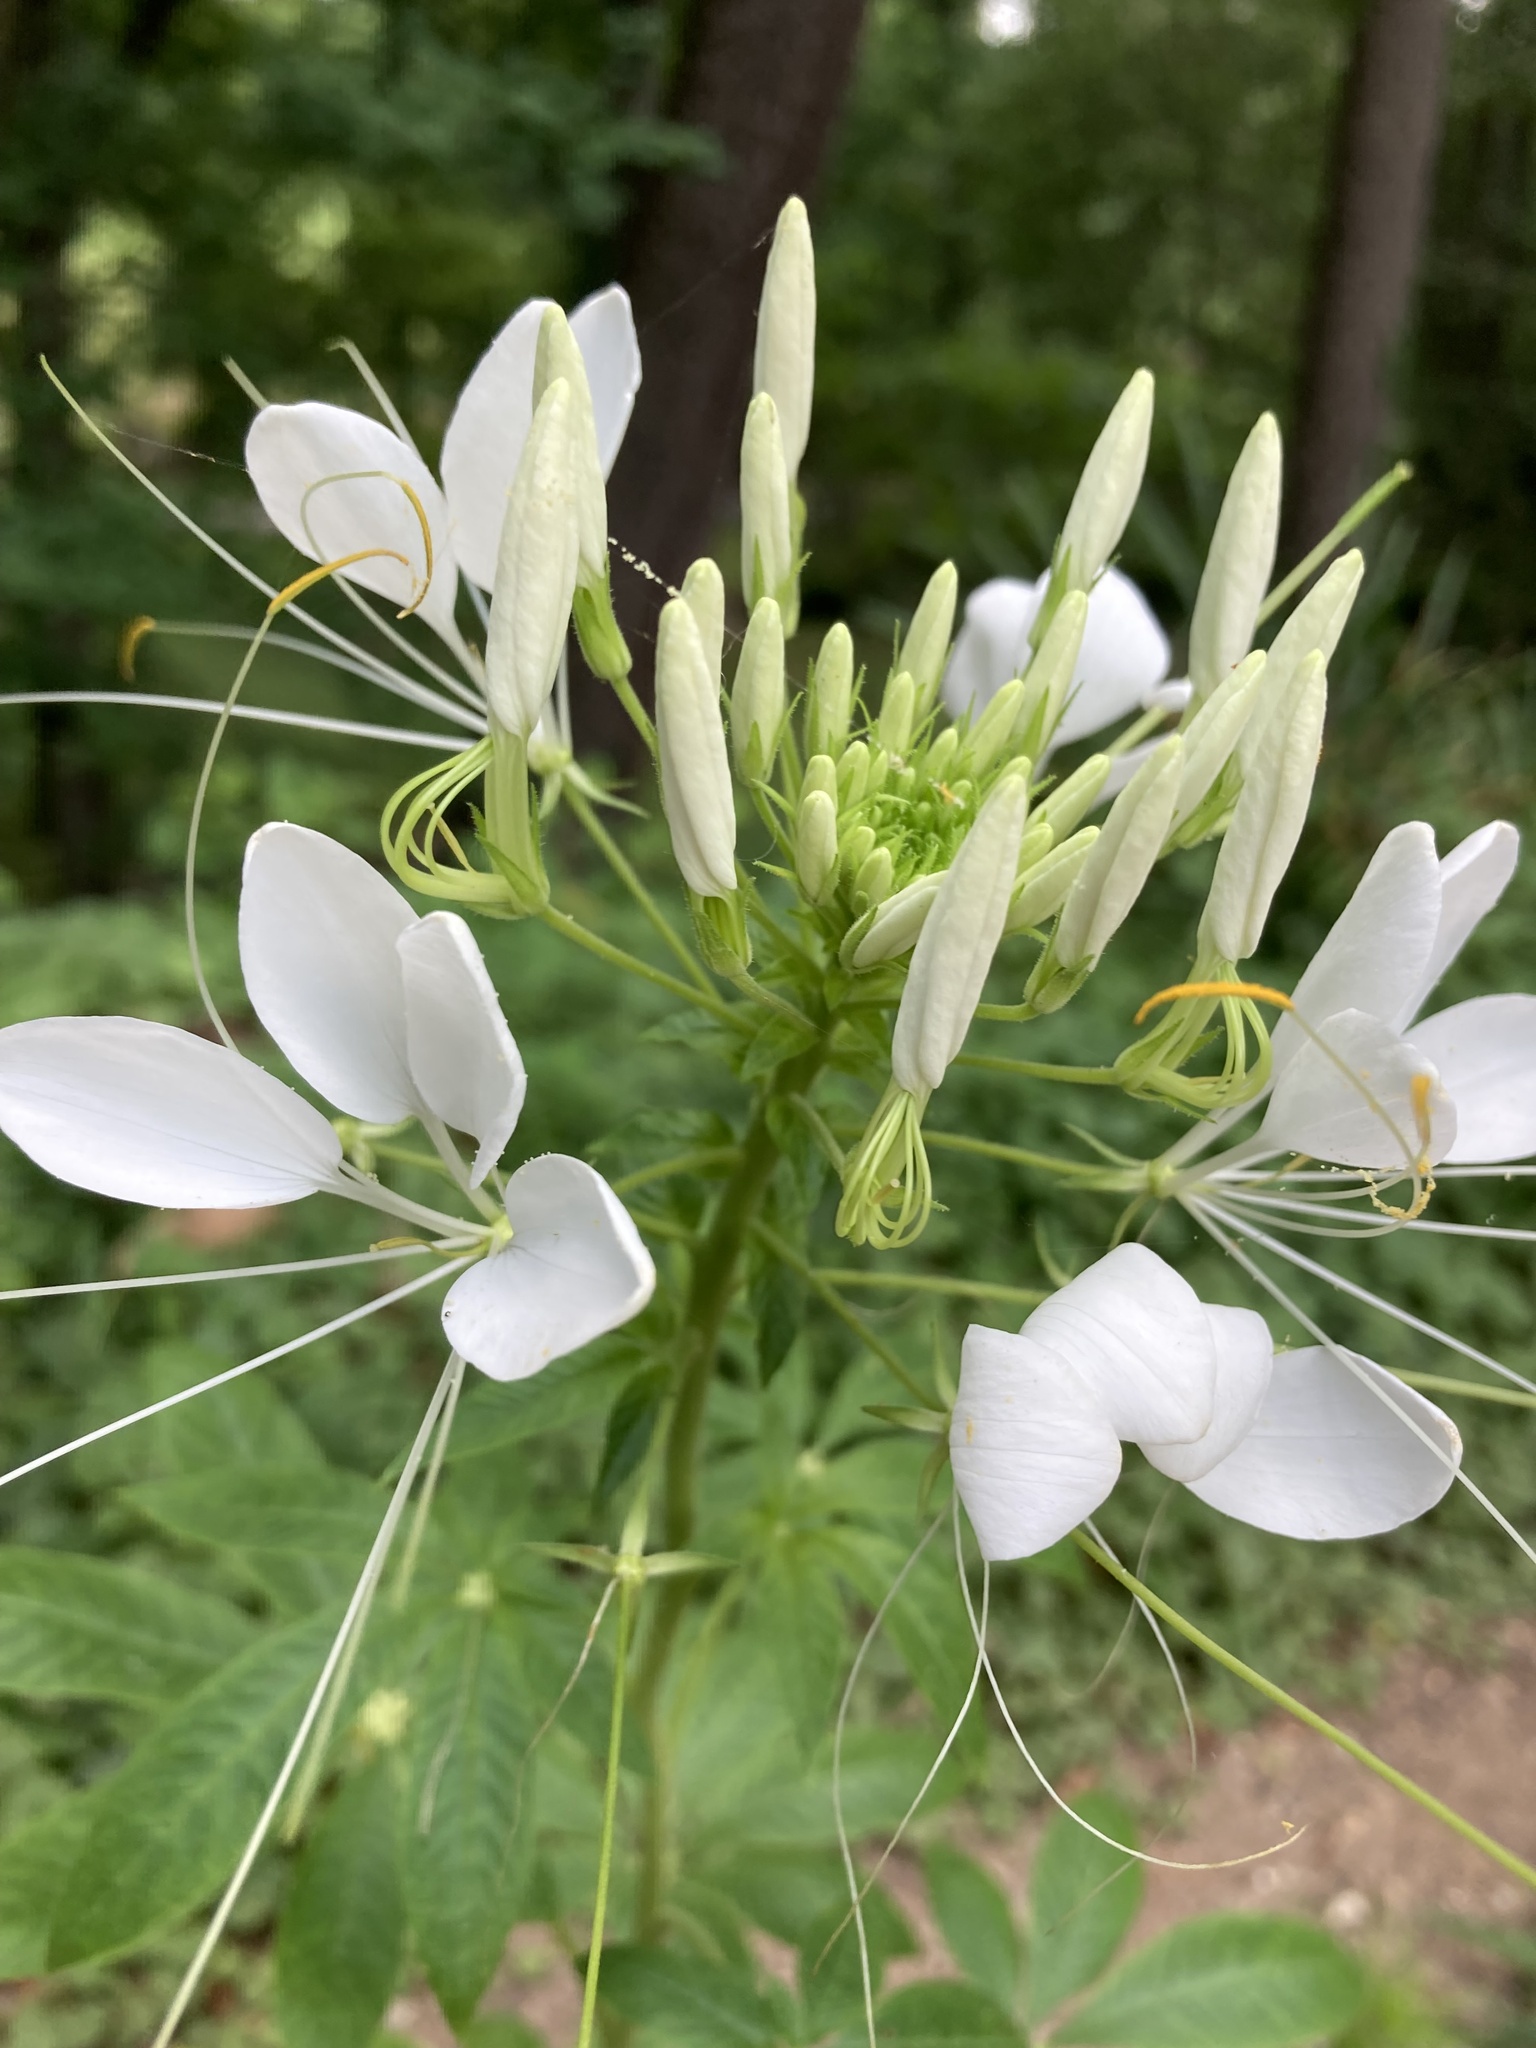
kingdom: Plantae
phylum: Tracheophyta
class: Magnoliopsida
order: Brassicales
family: Cleomaceae
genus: Tarenaya
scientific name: Tarenaya houtteana
